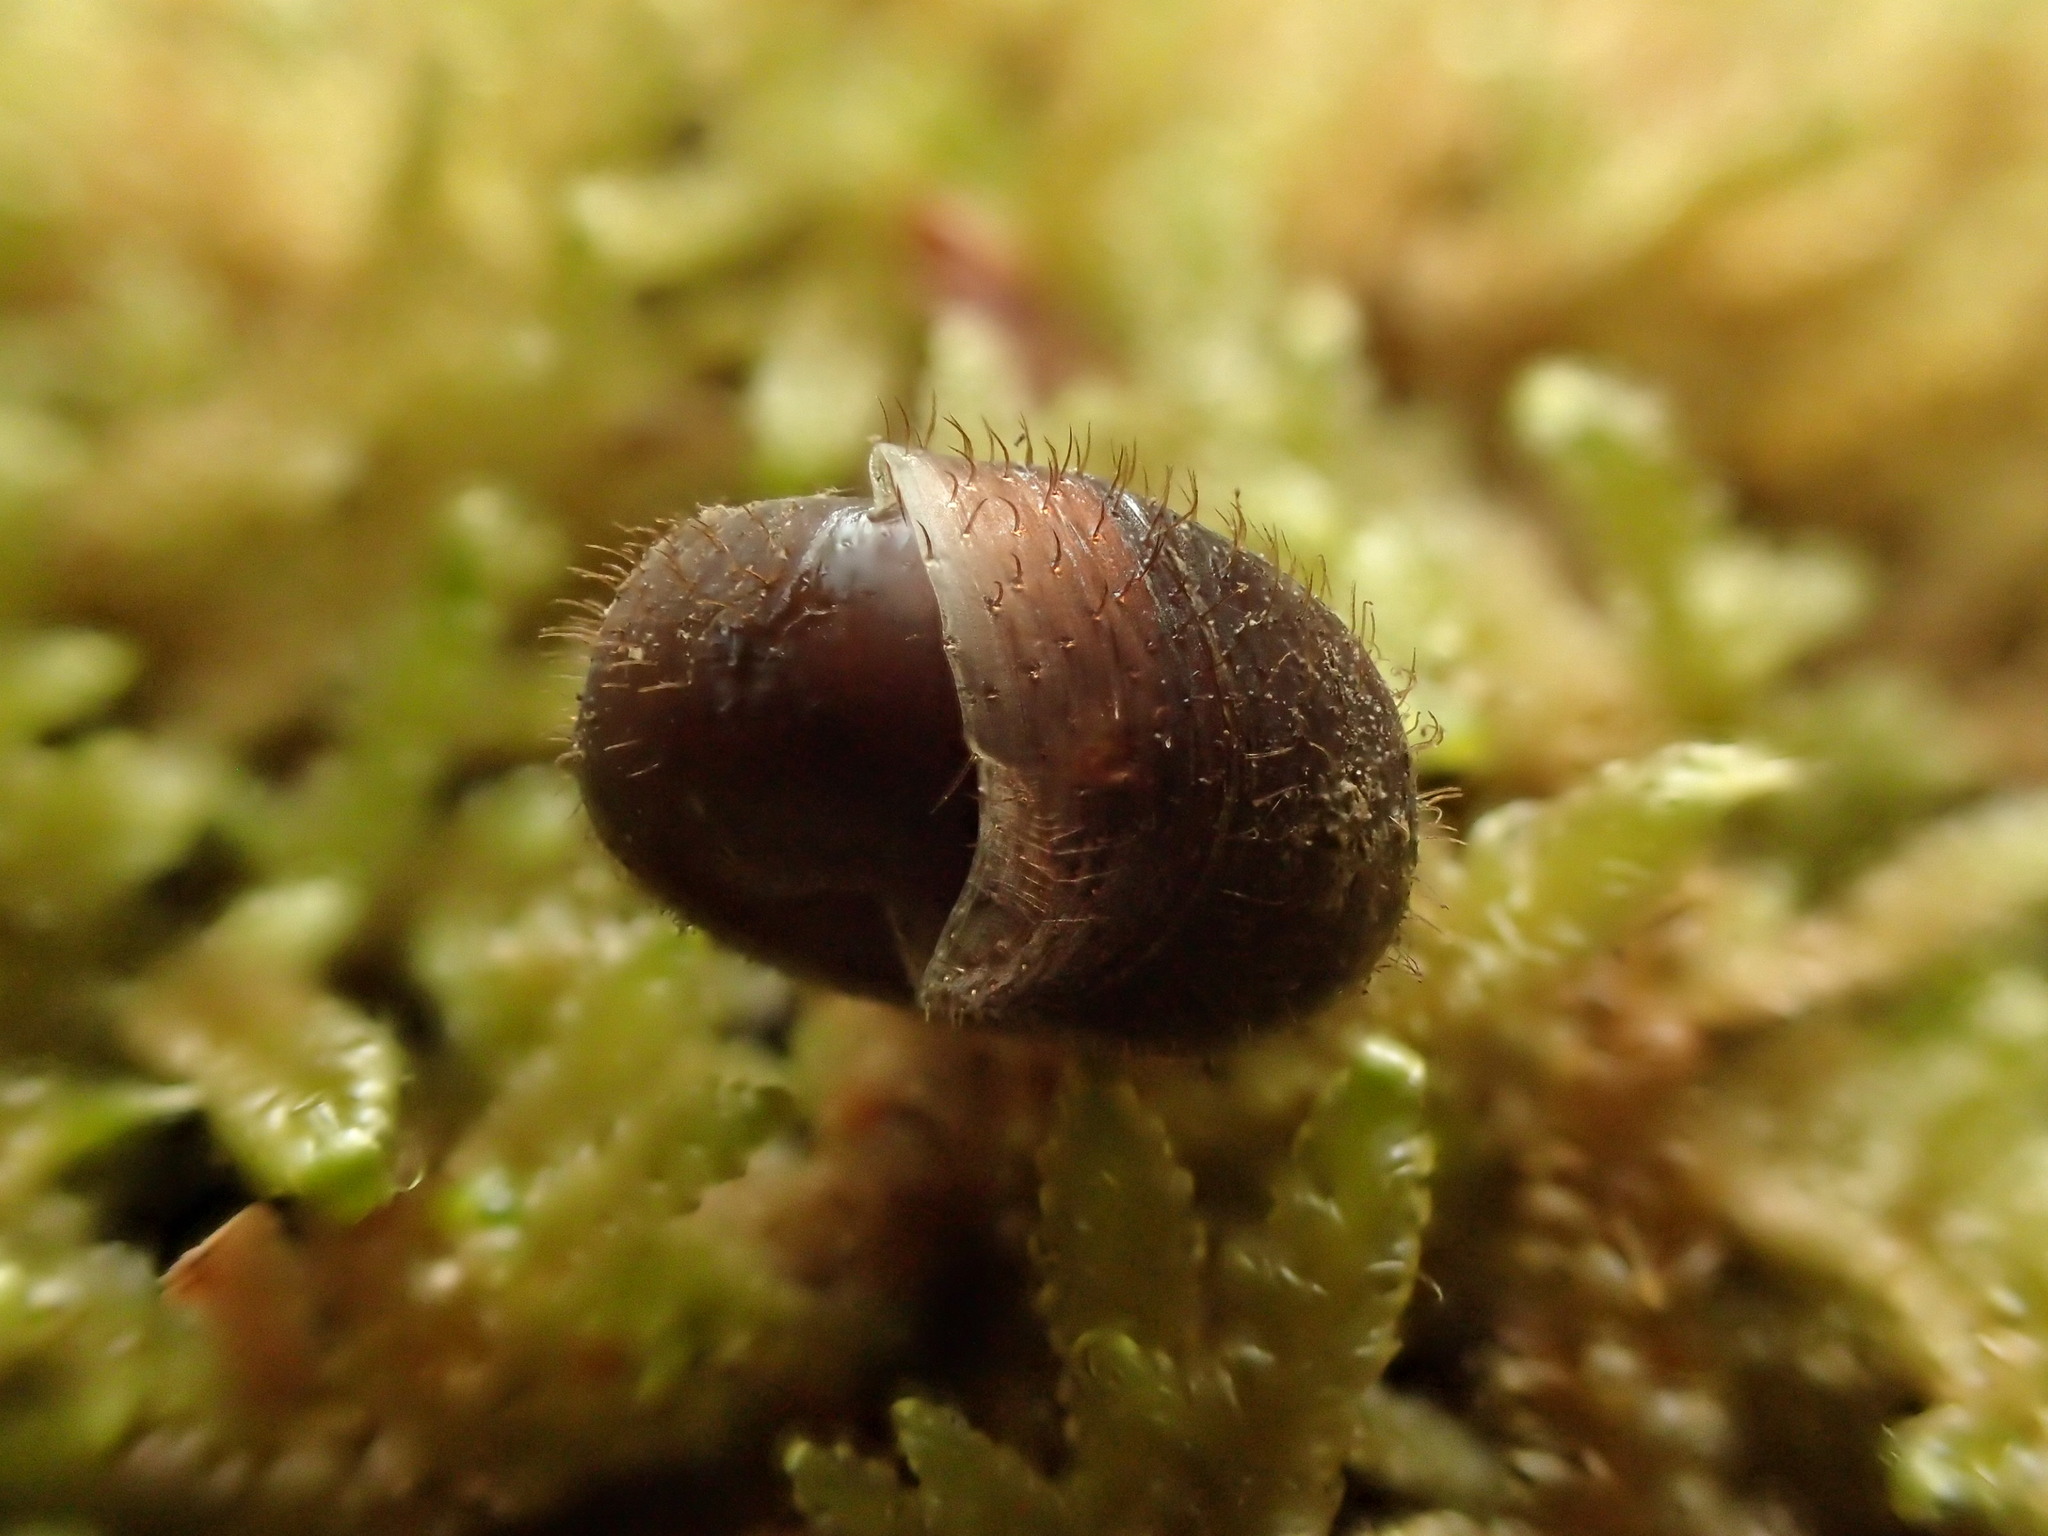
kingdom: Animalia
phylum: Mollusca
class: Gastropoda
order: Stylommatophora
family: Helicodontidae
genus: Helicodonta
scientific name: Helicodonta obvoluta
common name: Cheese snail
